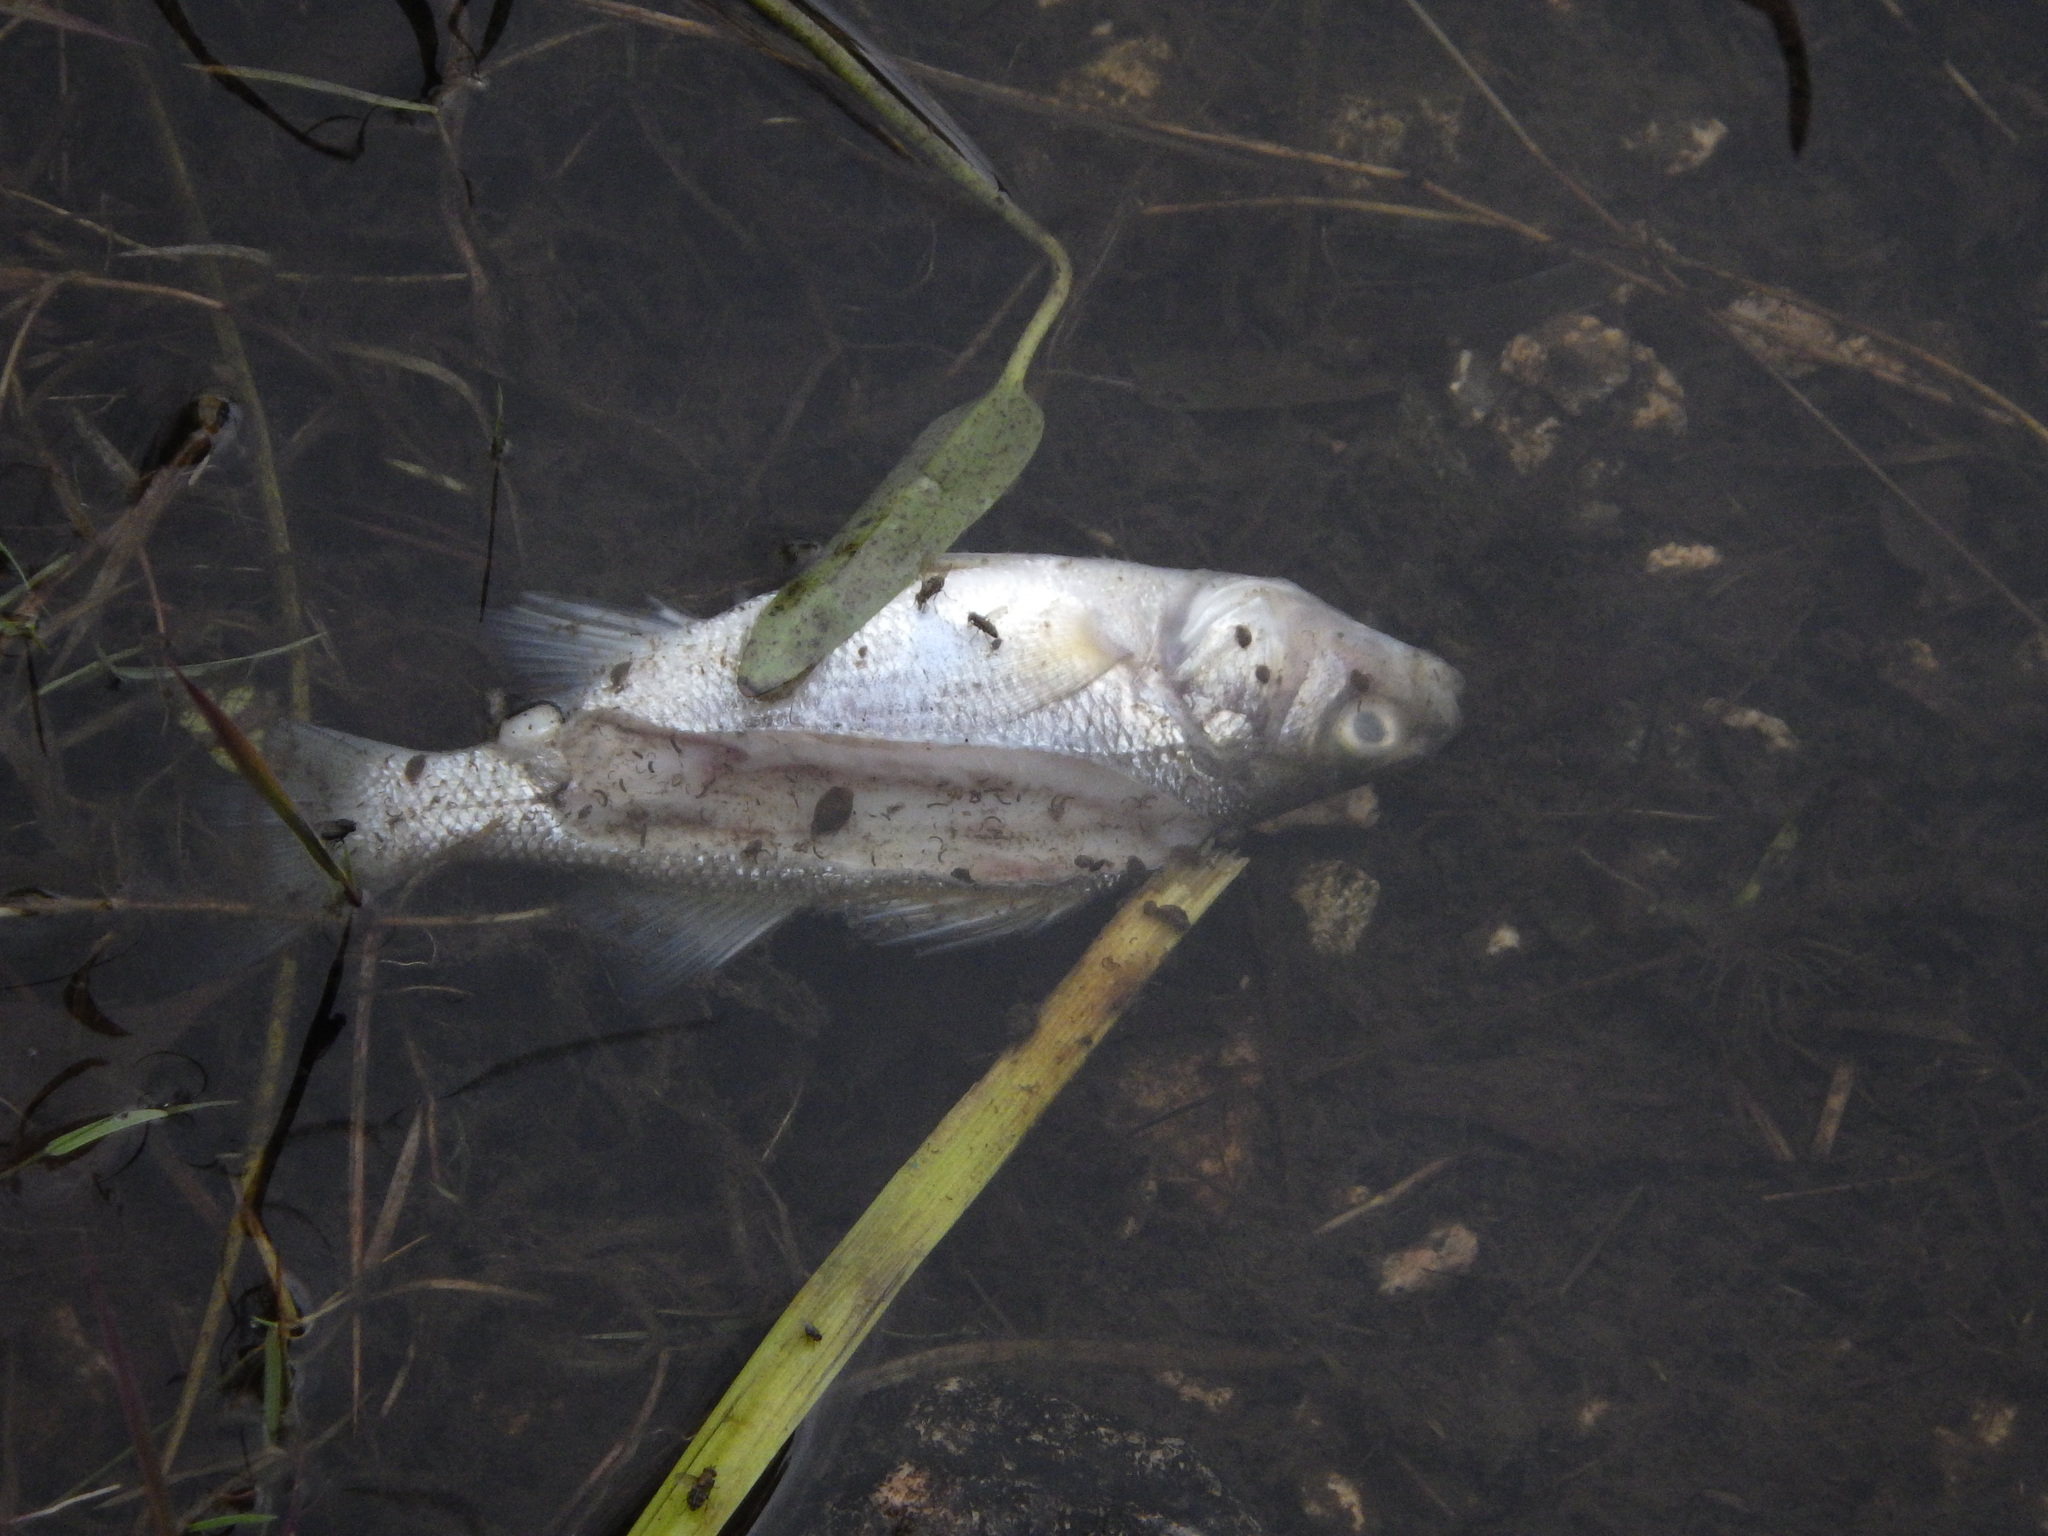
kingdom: Animalia
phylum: Chordata
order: Perciformes
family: Moronidae
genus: Morone
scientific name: Morone americana
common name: White perch
